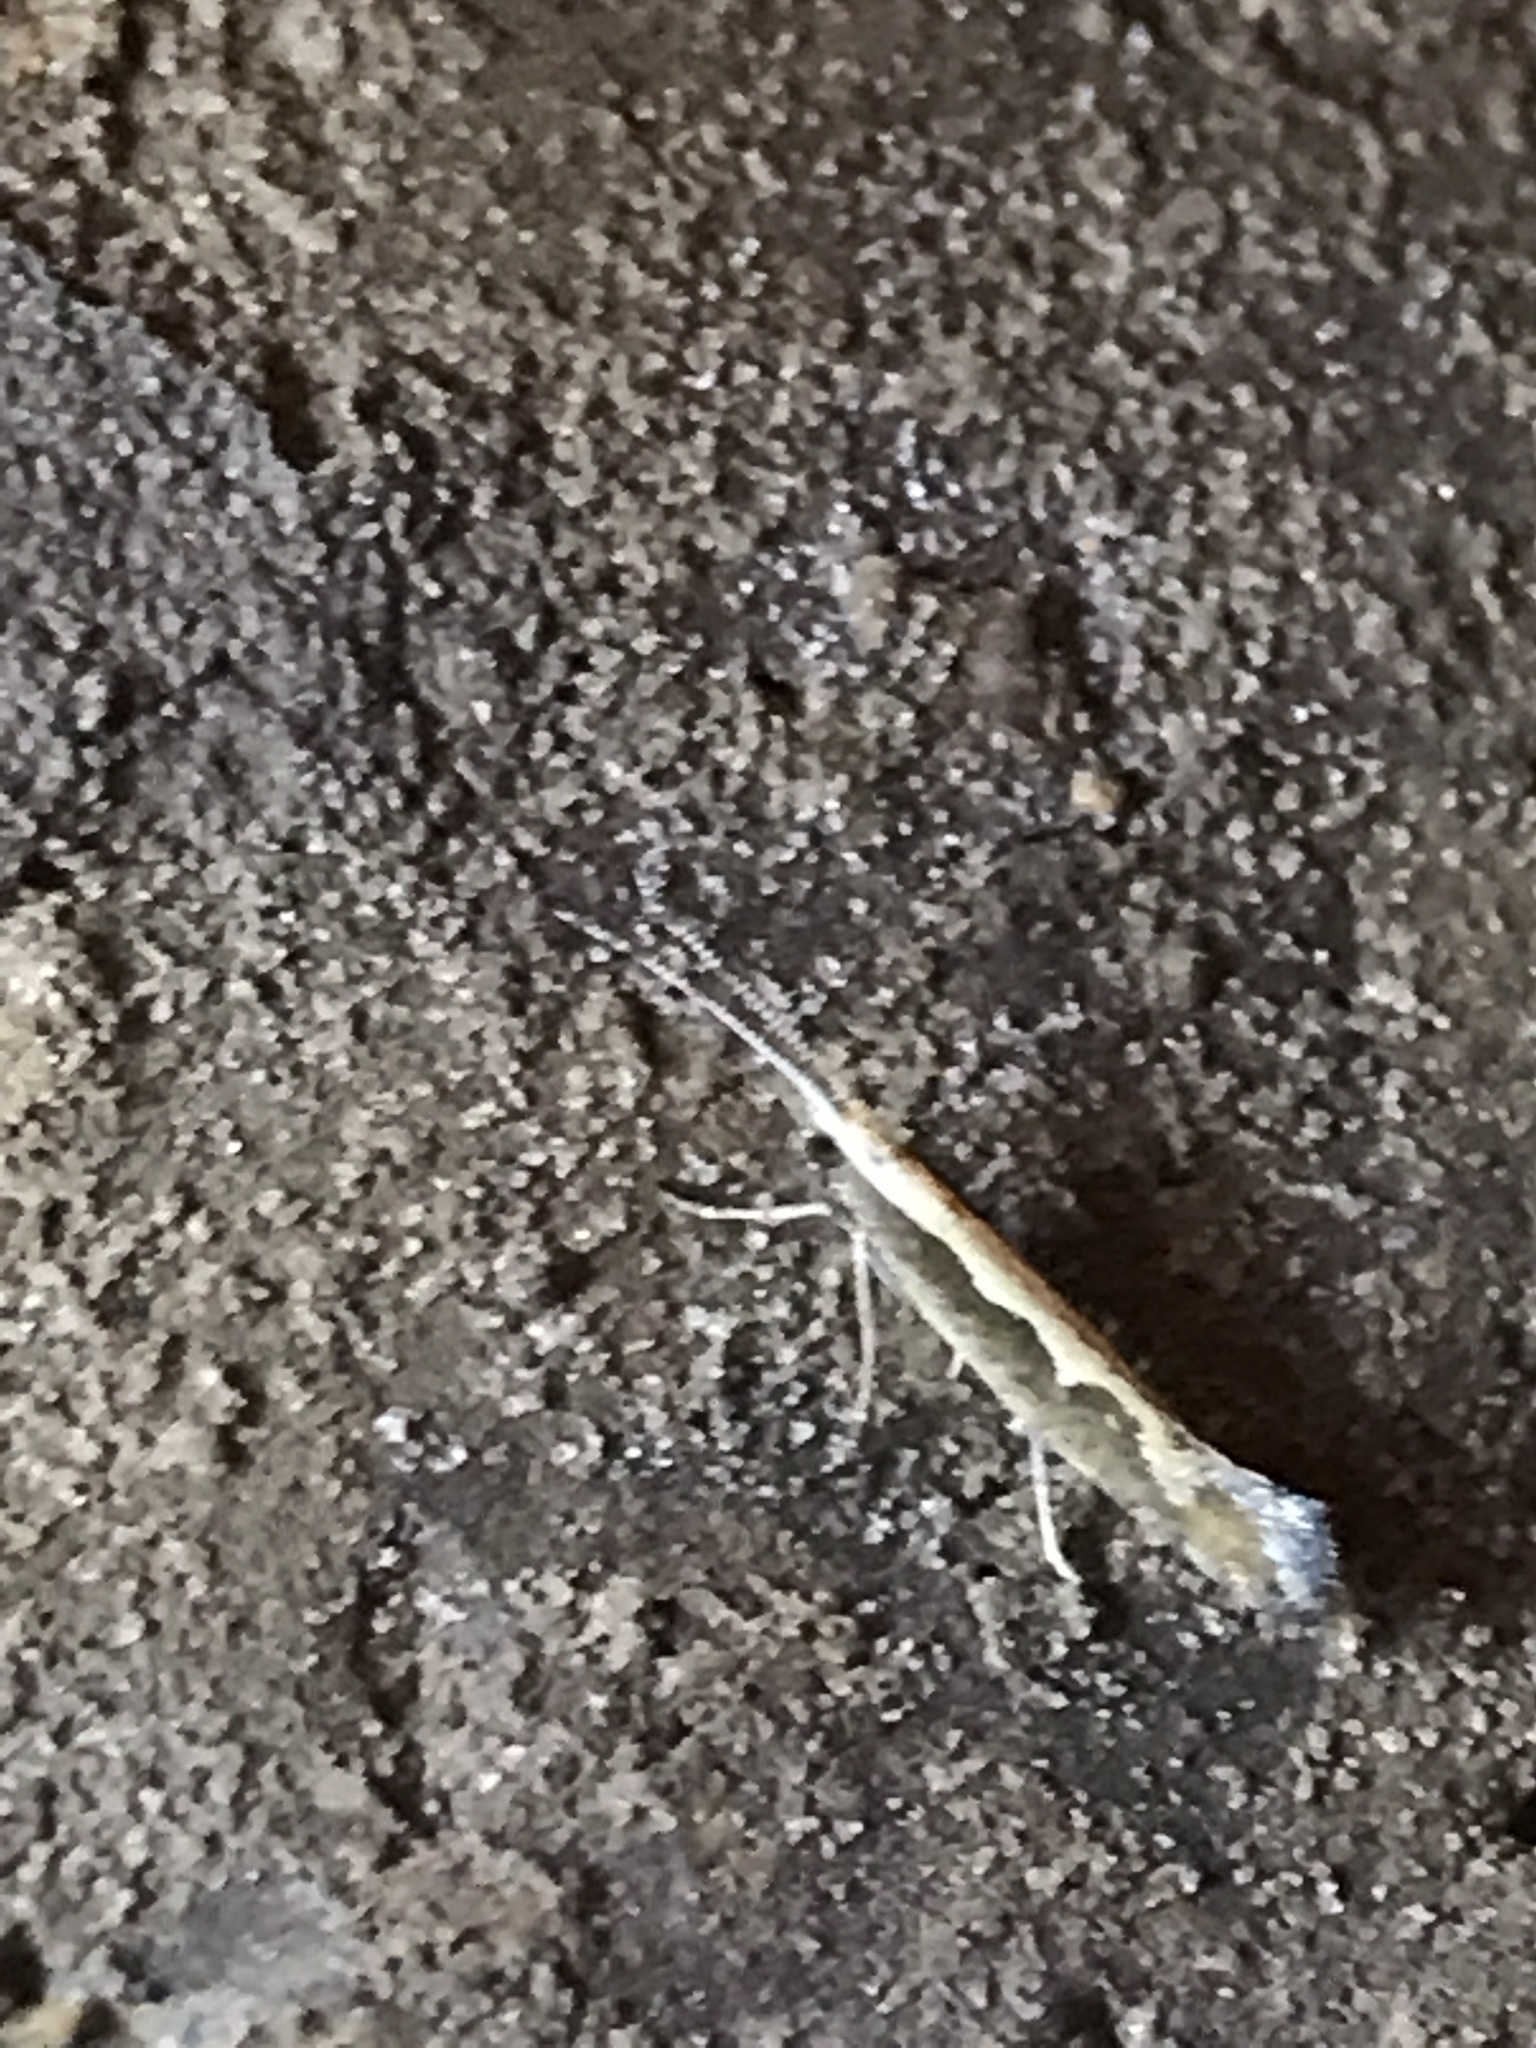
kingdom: Animalia
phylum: Arthropoda
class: Insecta
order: Lepidoptera
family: Plutellidae
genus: Plutella
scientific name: Plutella xylostella
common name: Diamond-back moth
